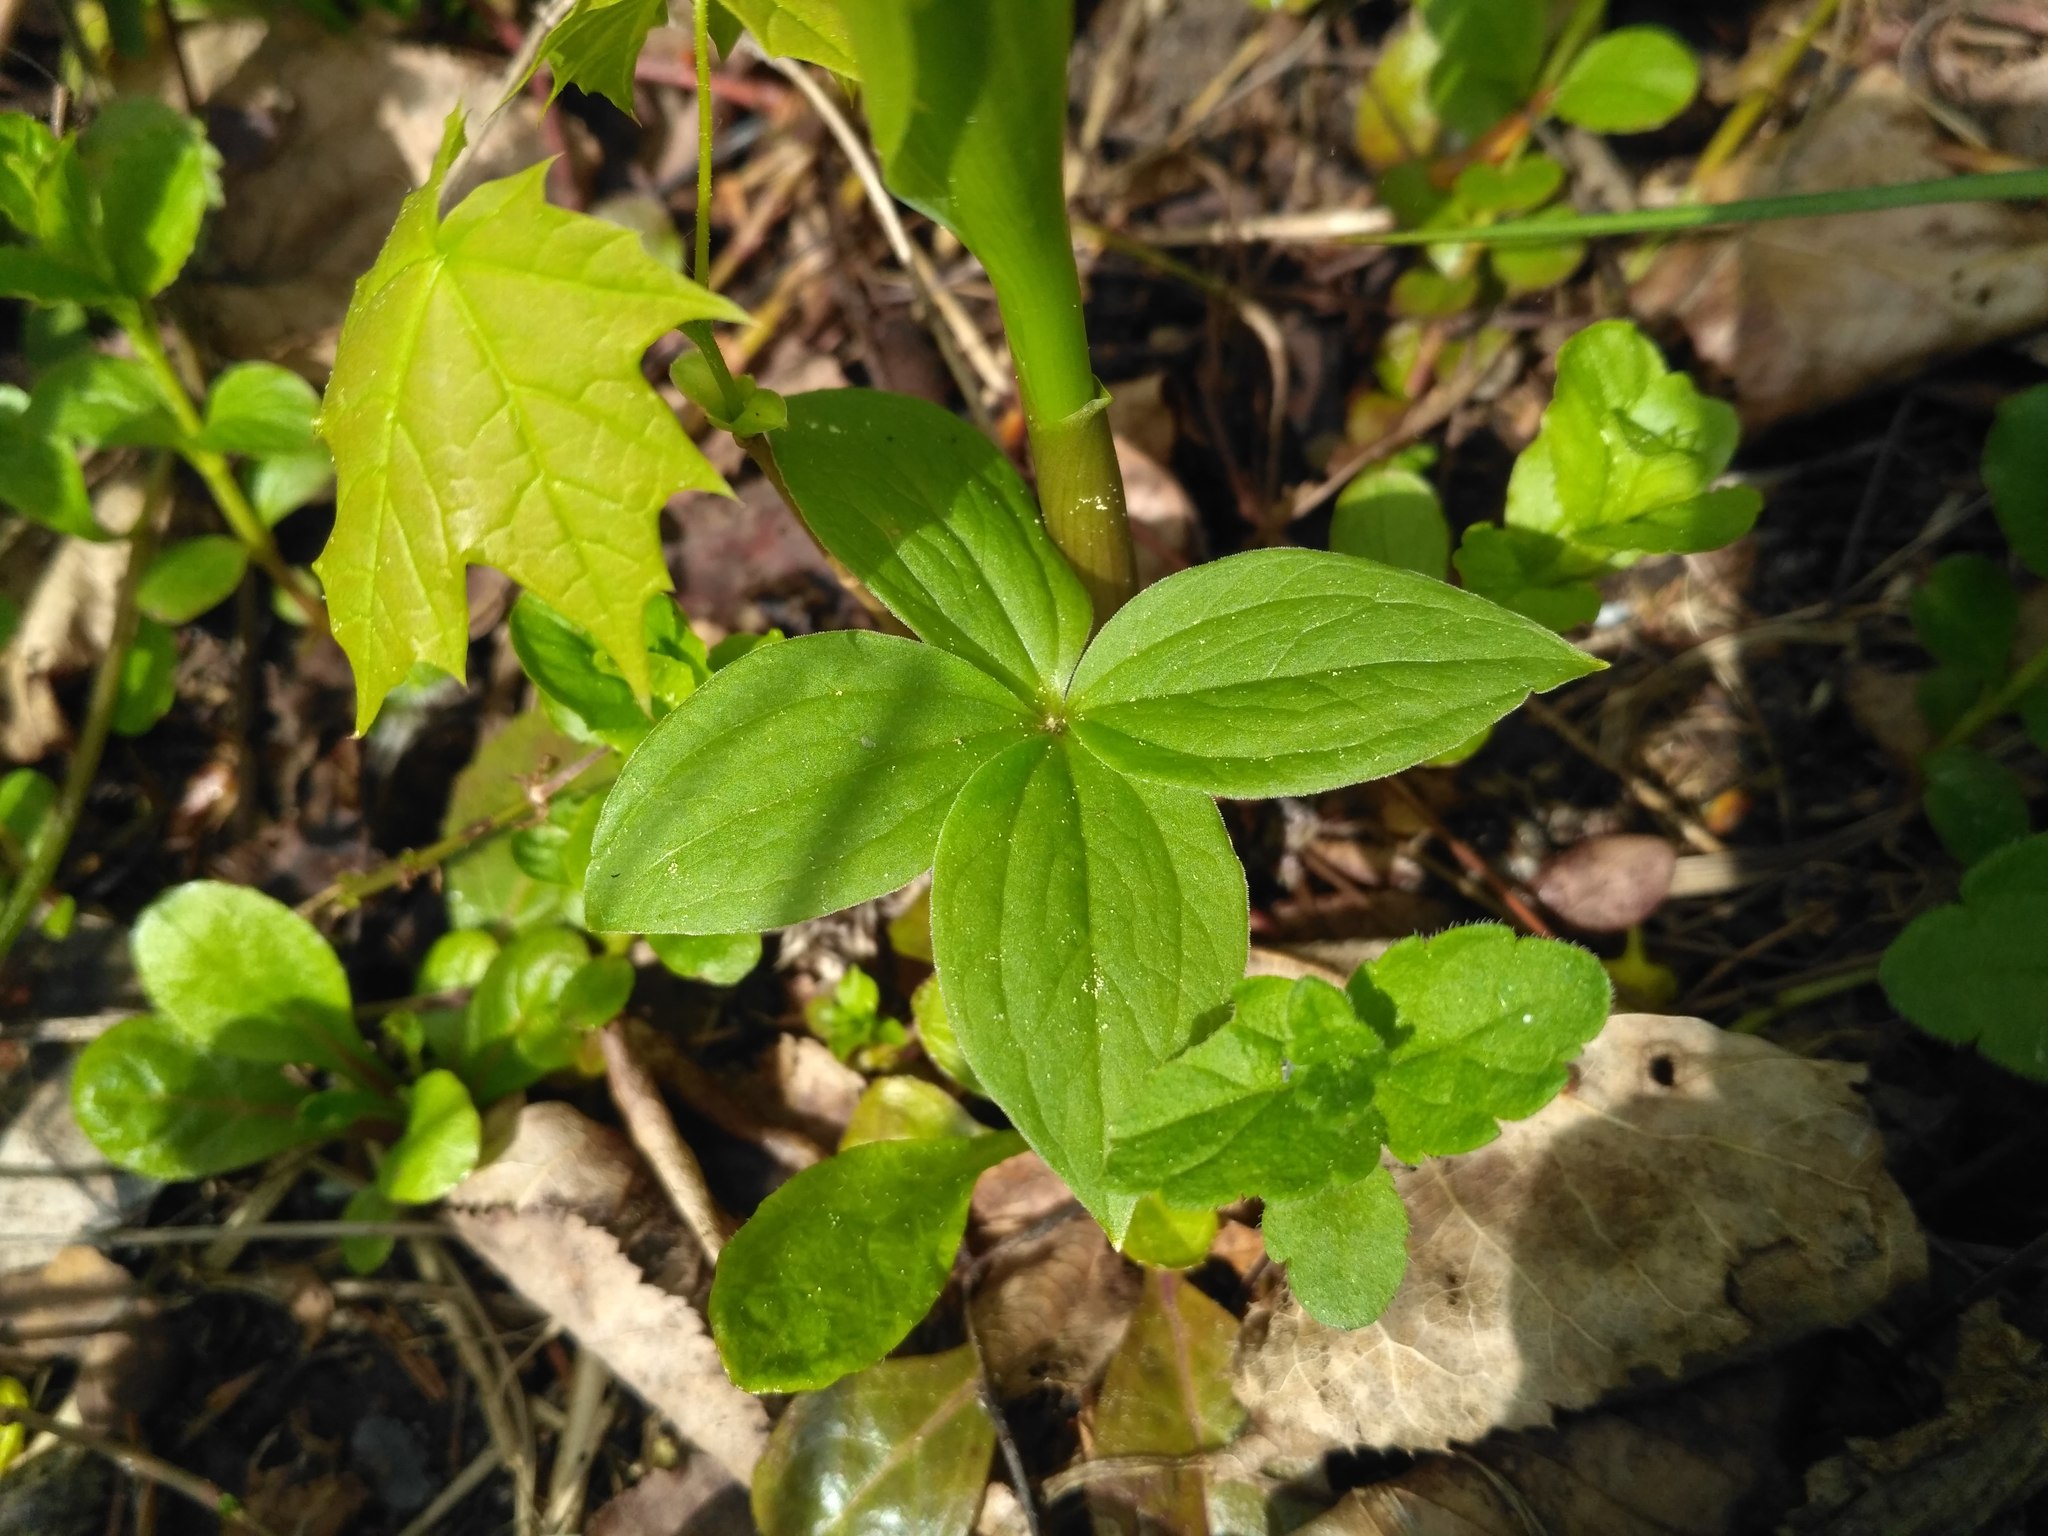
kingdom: Plantae
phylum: Tracheophyta
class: Liliopsida
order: Liliales
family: Melanthiaceae
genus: Paris
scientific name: Paris quadrifolia
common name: Herb-paris
